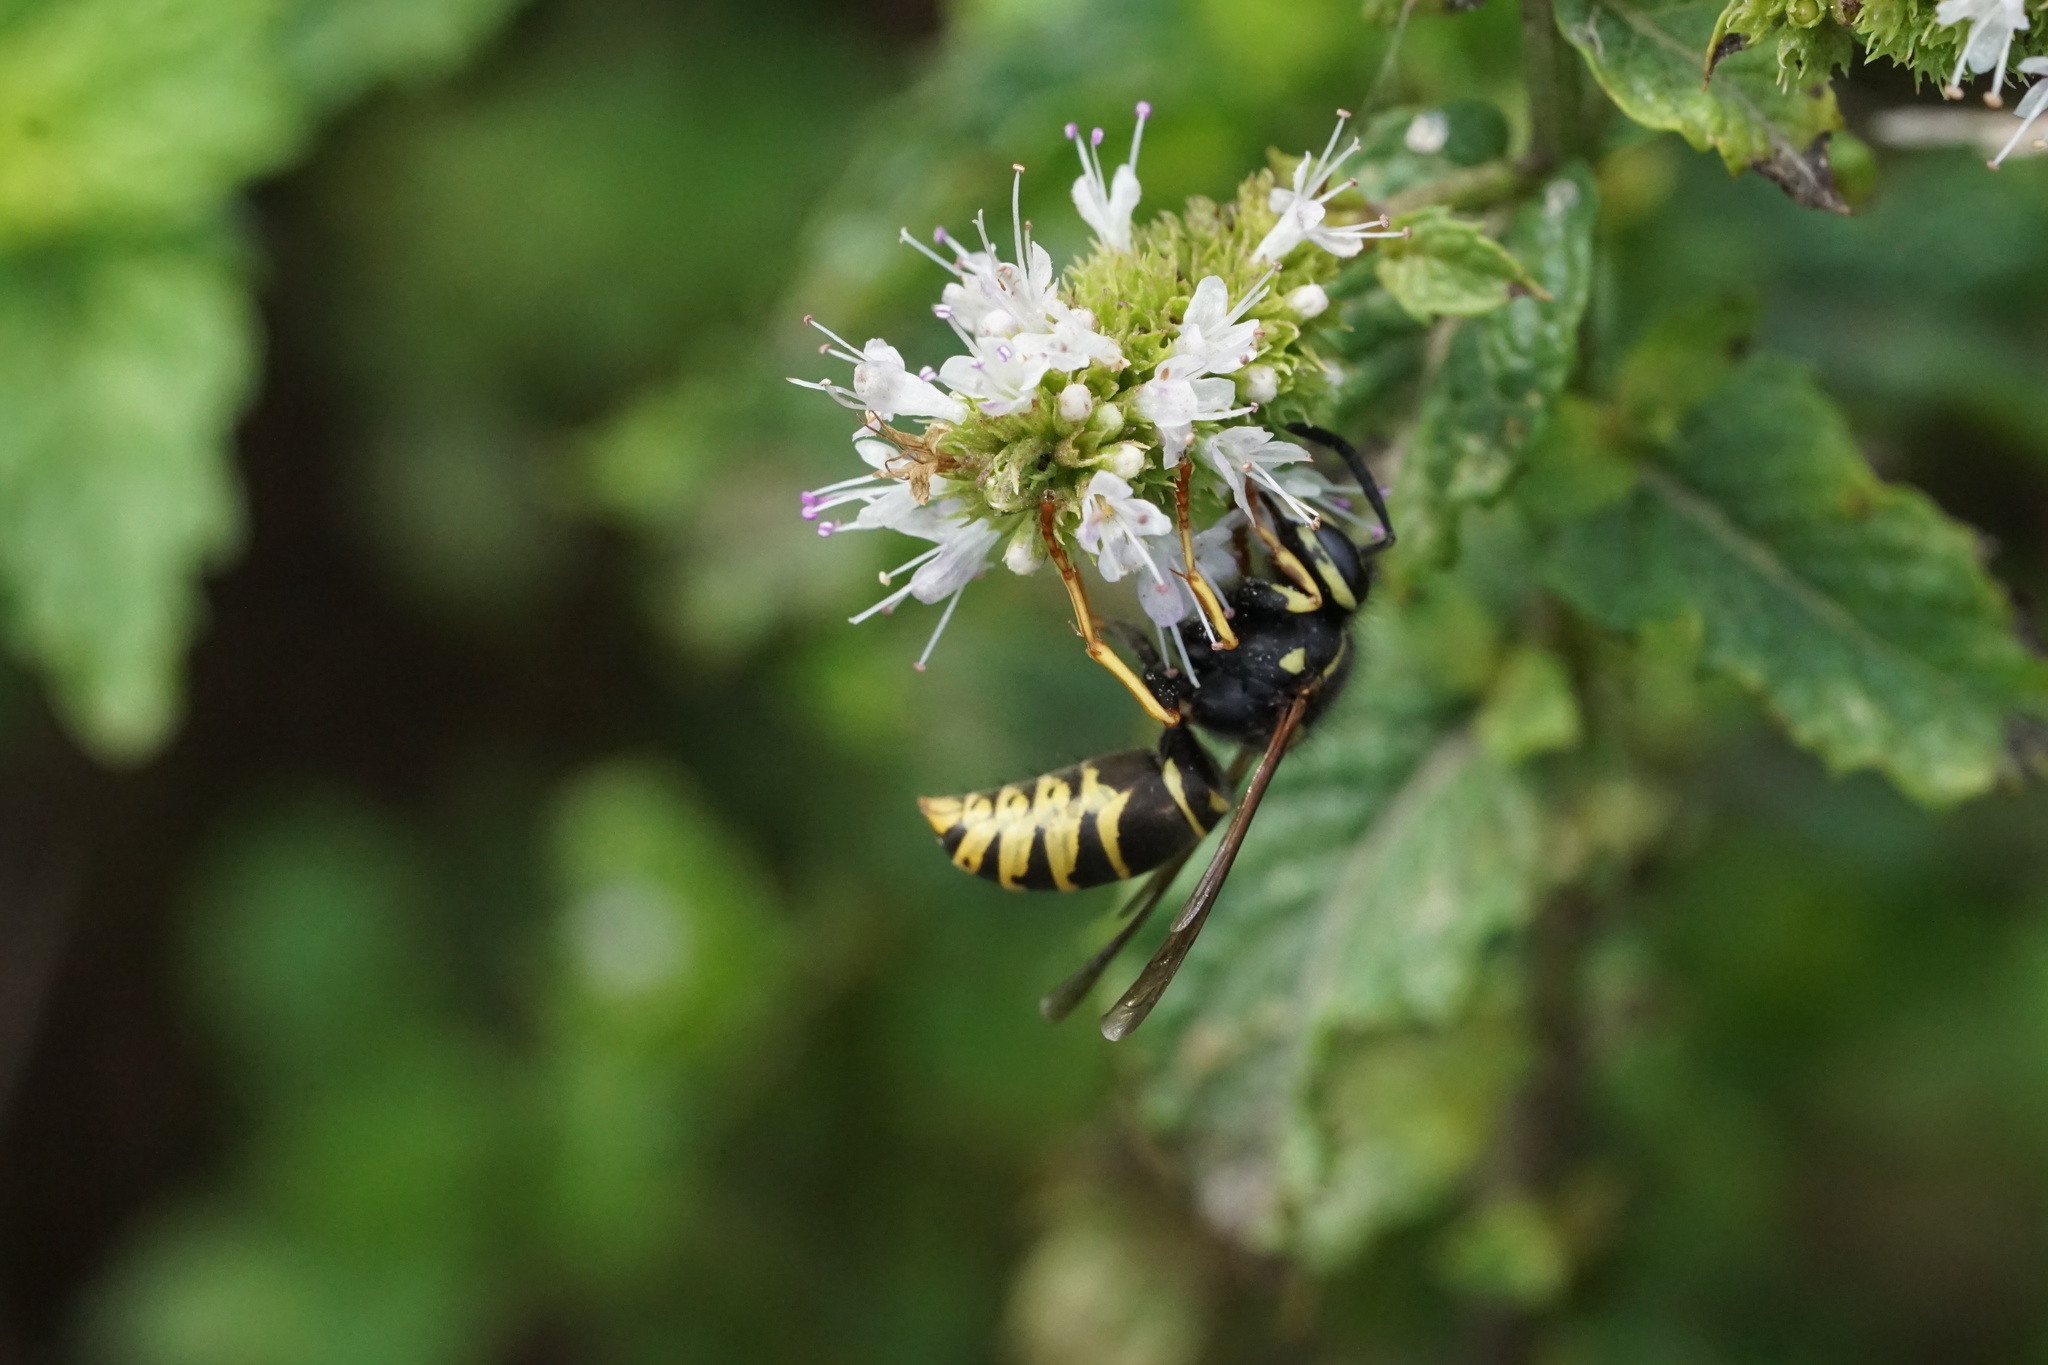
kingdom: Animalia
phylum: Arthropoda
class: Insecta
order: Hymenoptera
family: Vespidae
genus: Vespula
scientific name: Vespula vidua
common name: Widow yellowjacket
